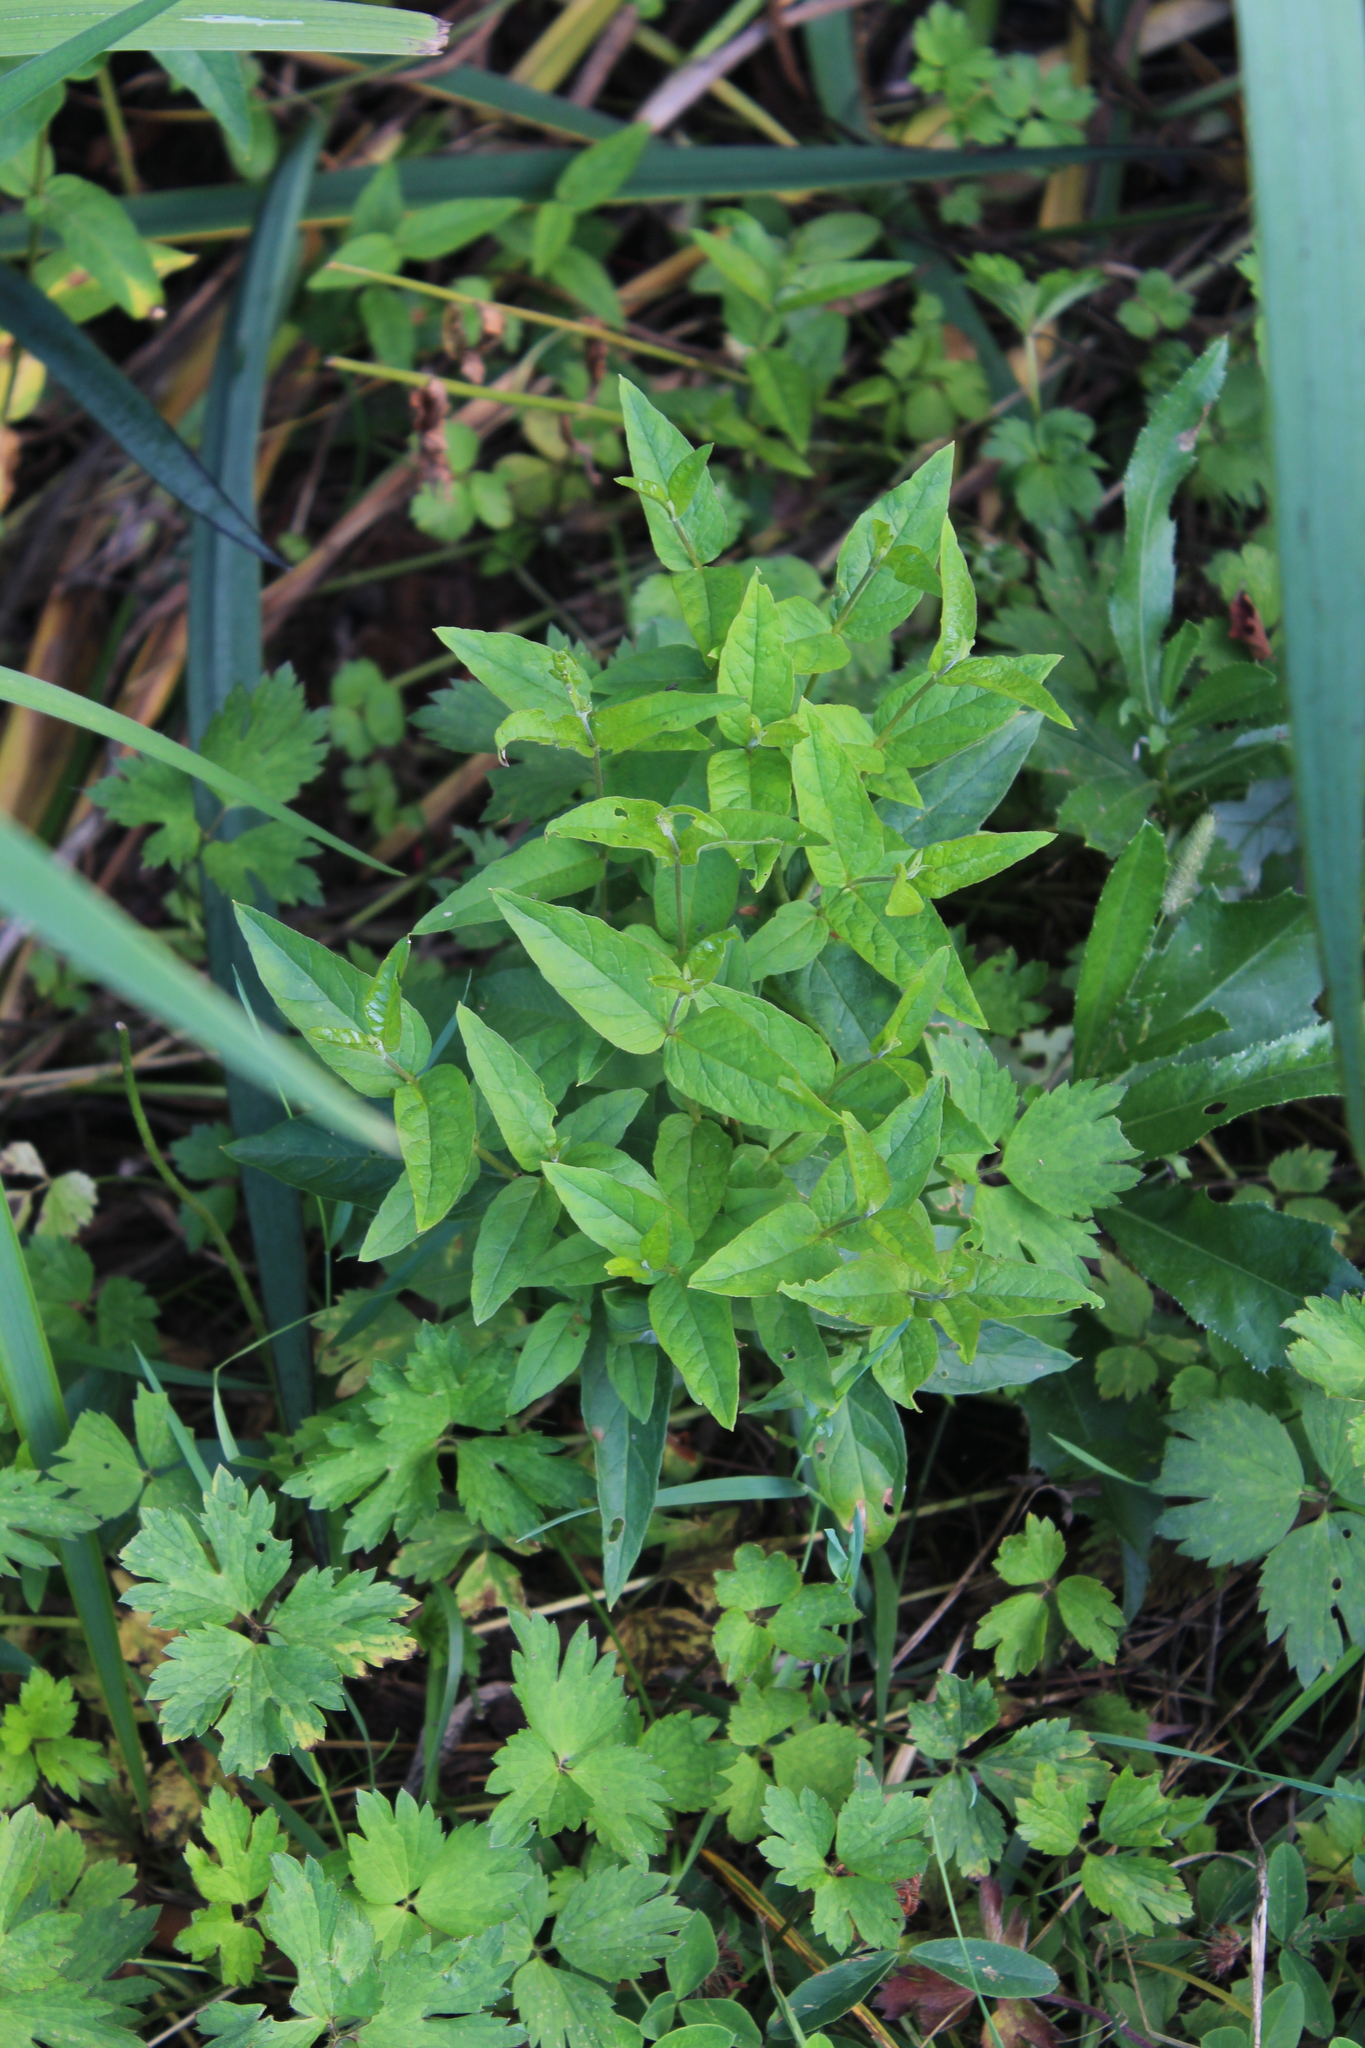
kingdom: Plantae
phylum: Tracheophyta
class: Magnoliopsida
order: Ericales
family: Primulaceae
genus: Lysimachia
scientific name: Lysimachia vulgaris
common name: Yellow loosestrife
